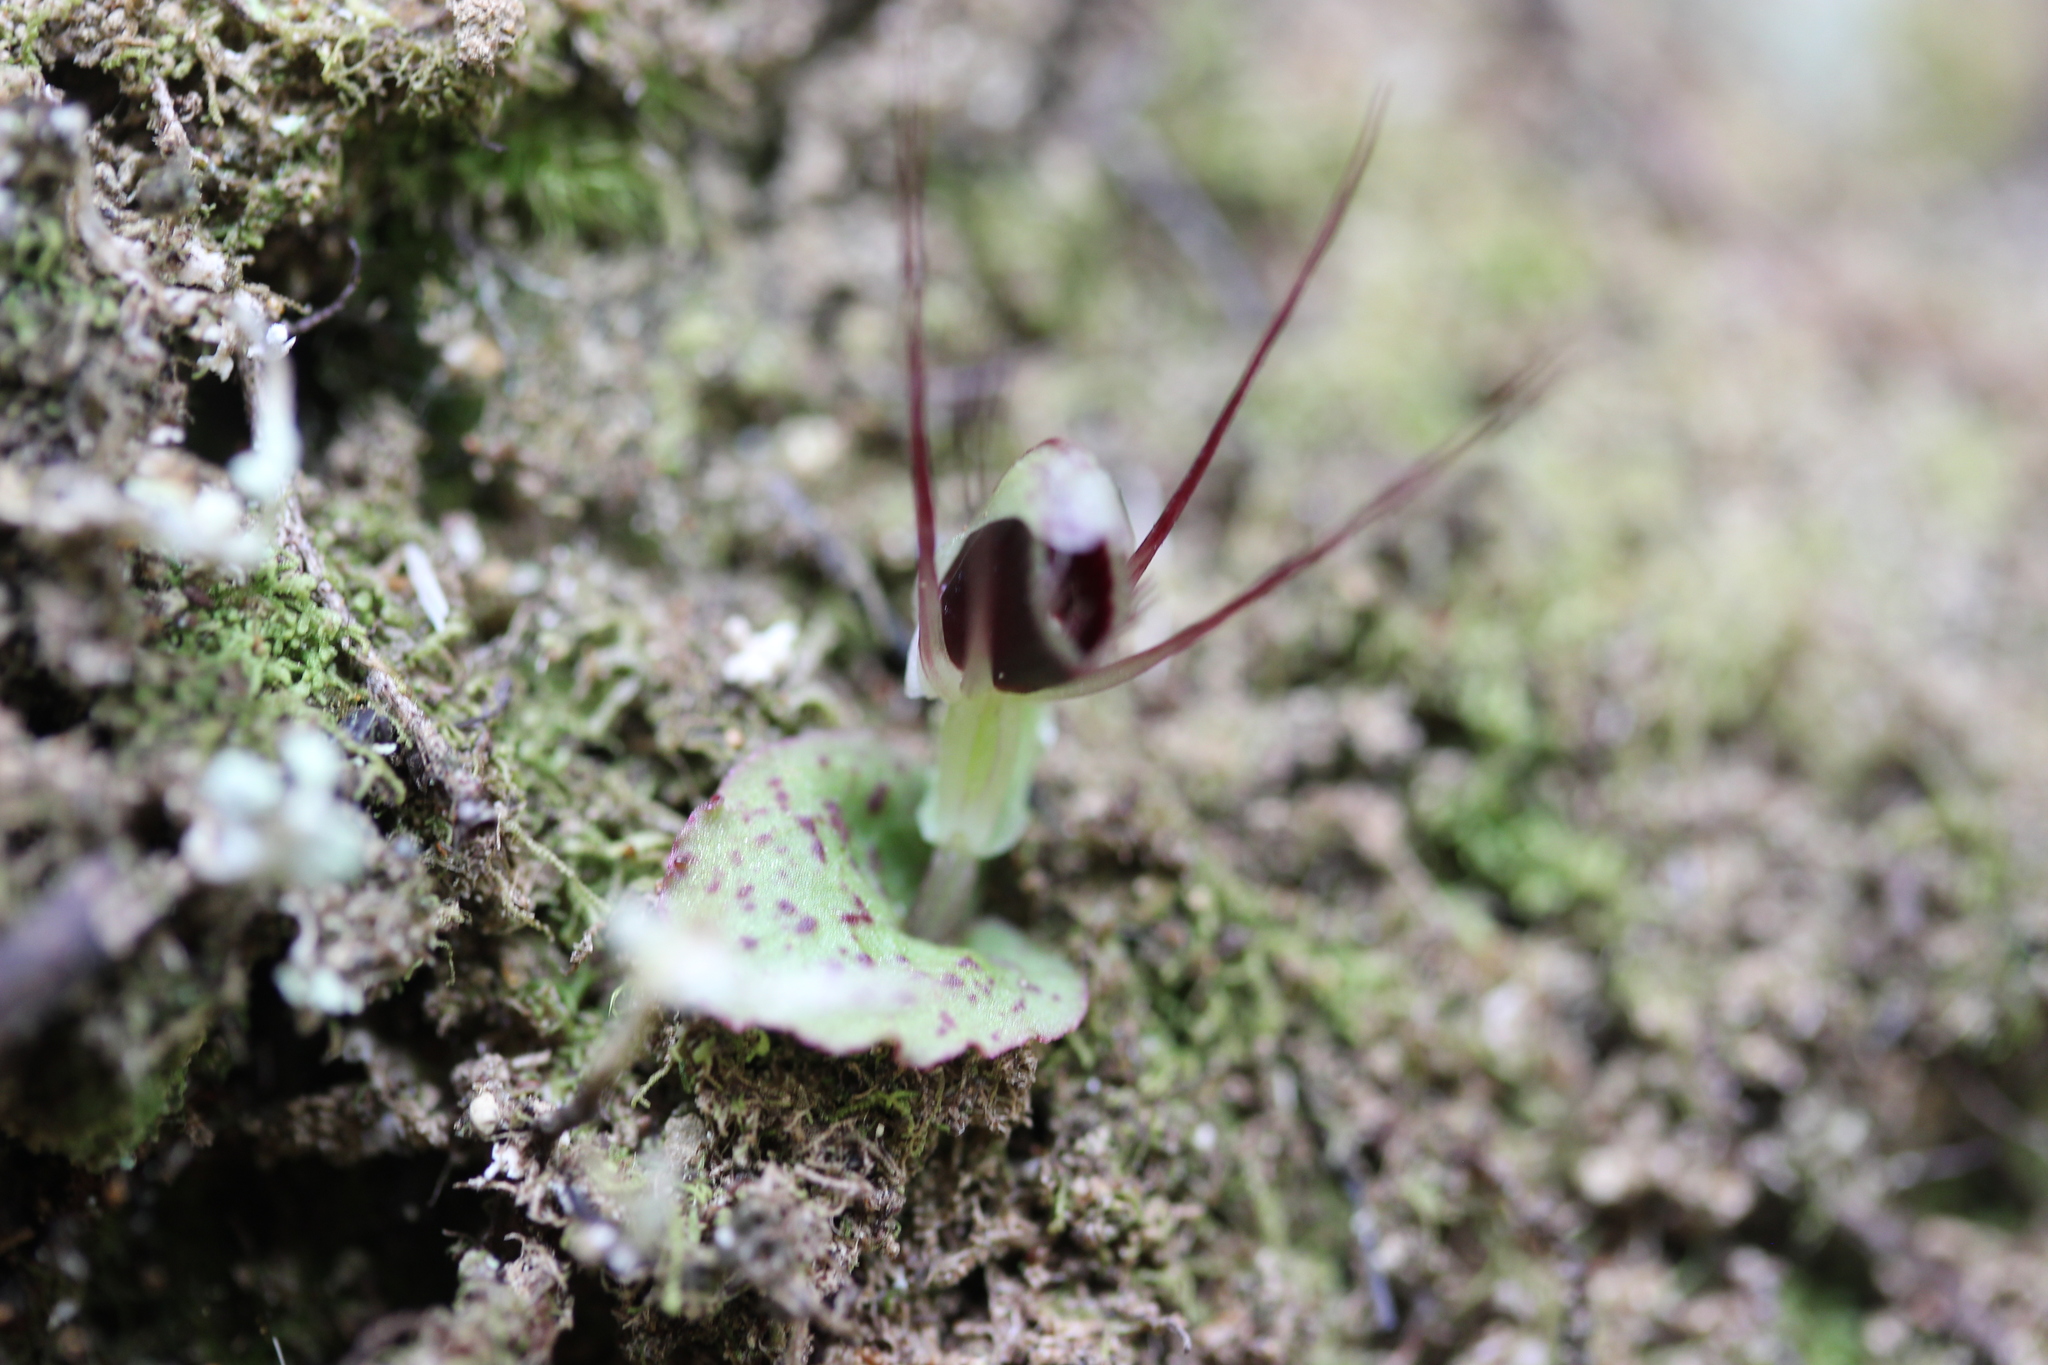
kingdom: Plantae
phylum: Tracheophyta
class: Liliopsida
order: Asparagales
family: Orchidaceae
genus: Corybas
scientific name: Corybas oblongus
